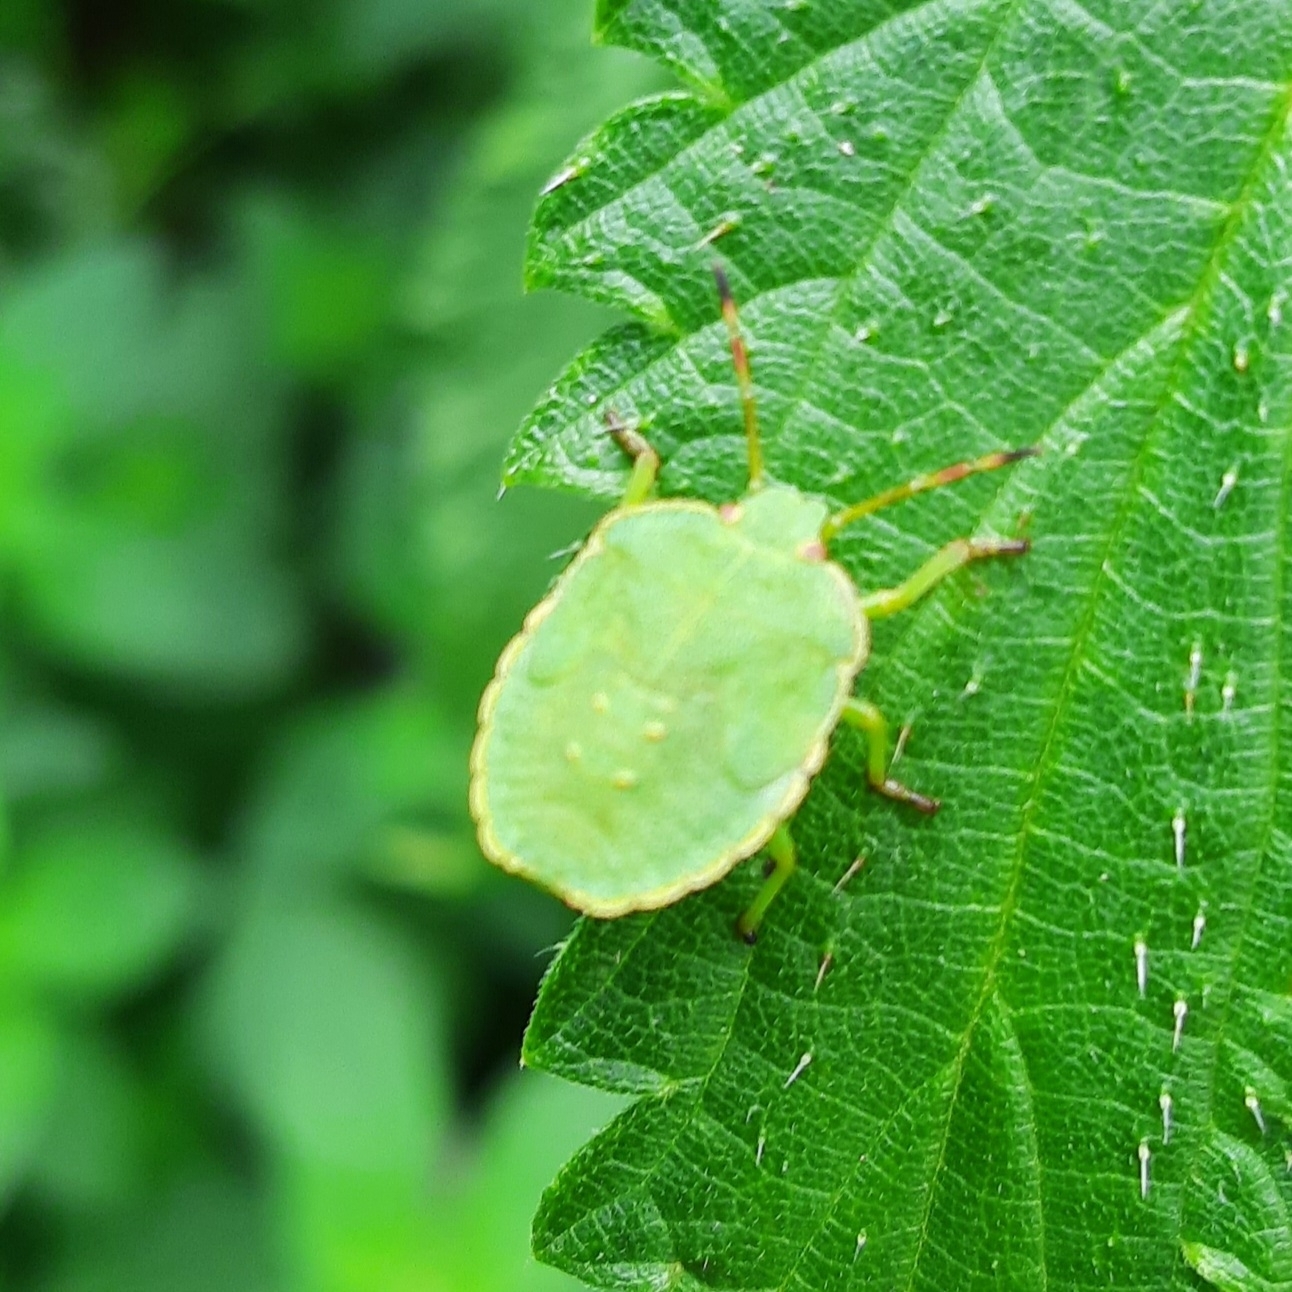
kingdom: Animalia
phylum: Arthropoda
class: Insecta
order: Hemiptera
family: Pentatomidae
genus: Palomena
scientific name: Palomena prasina
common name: Green shieldbug
